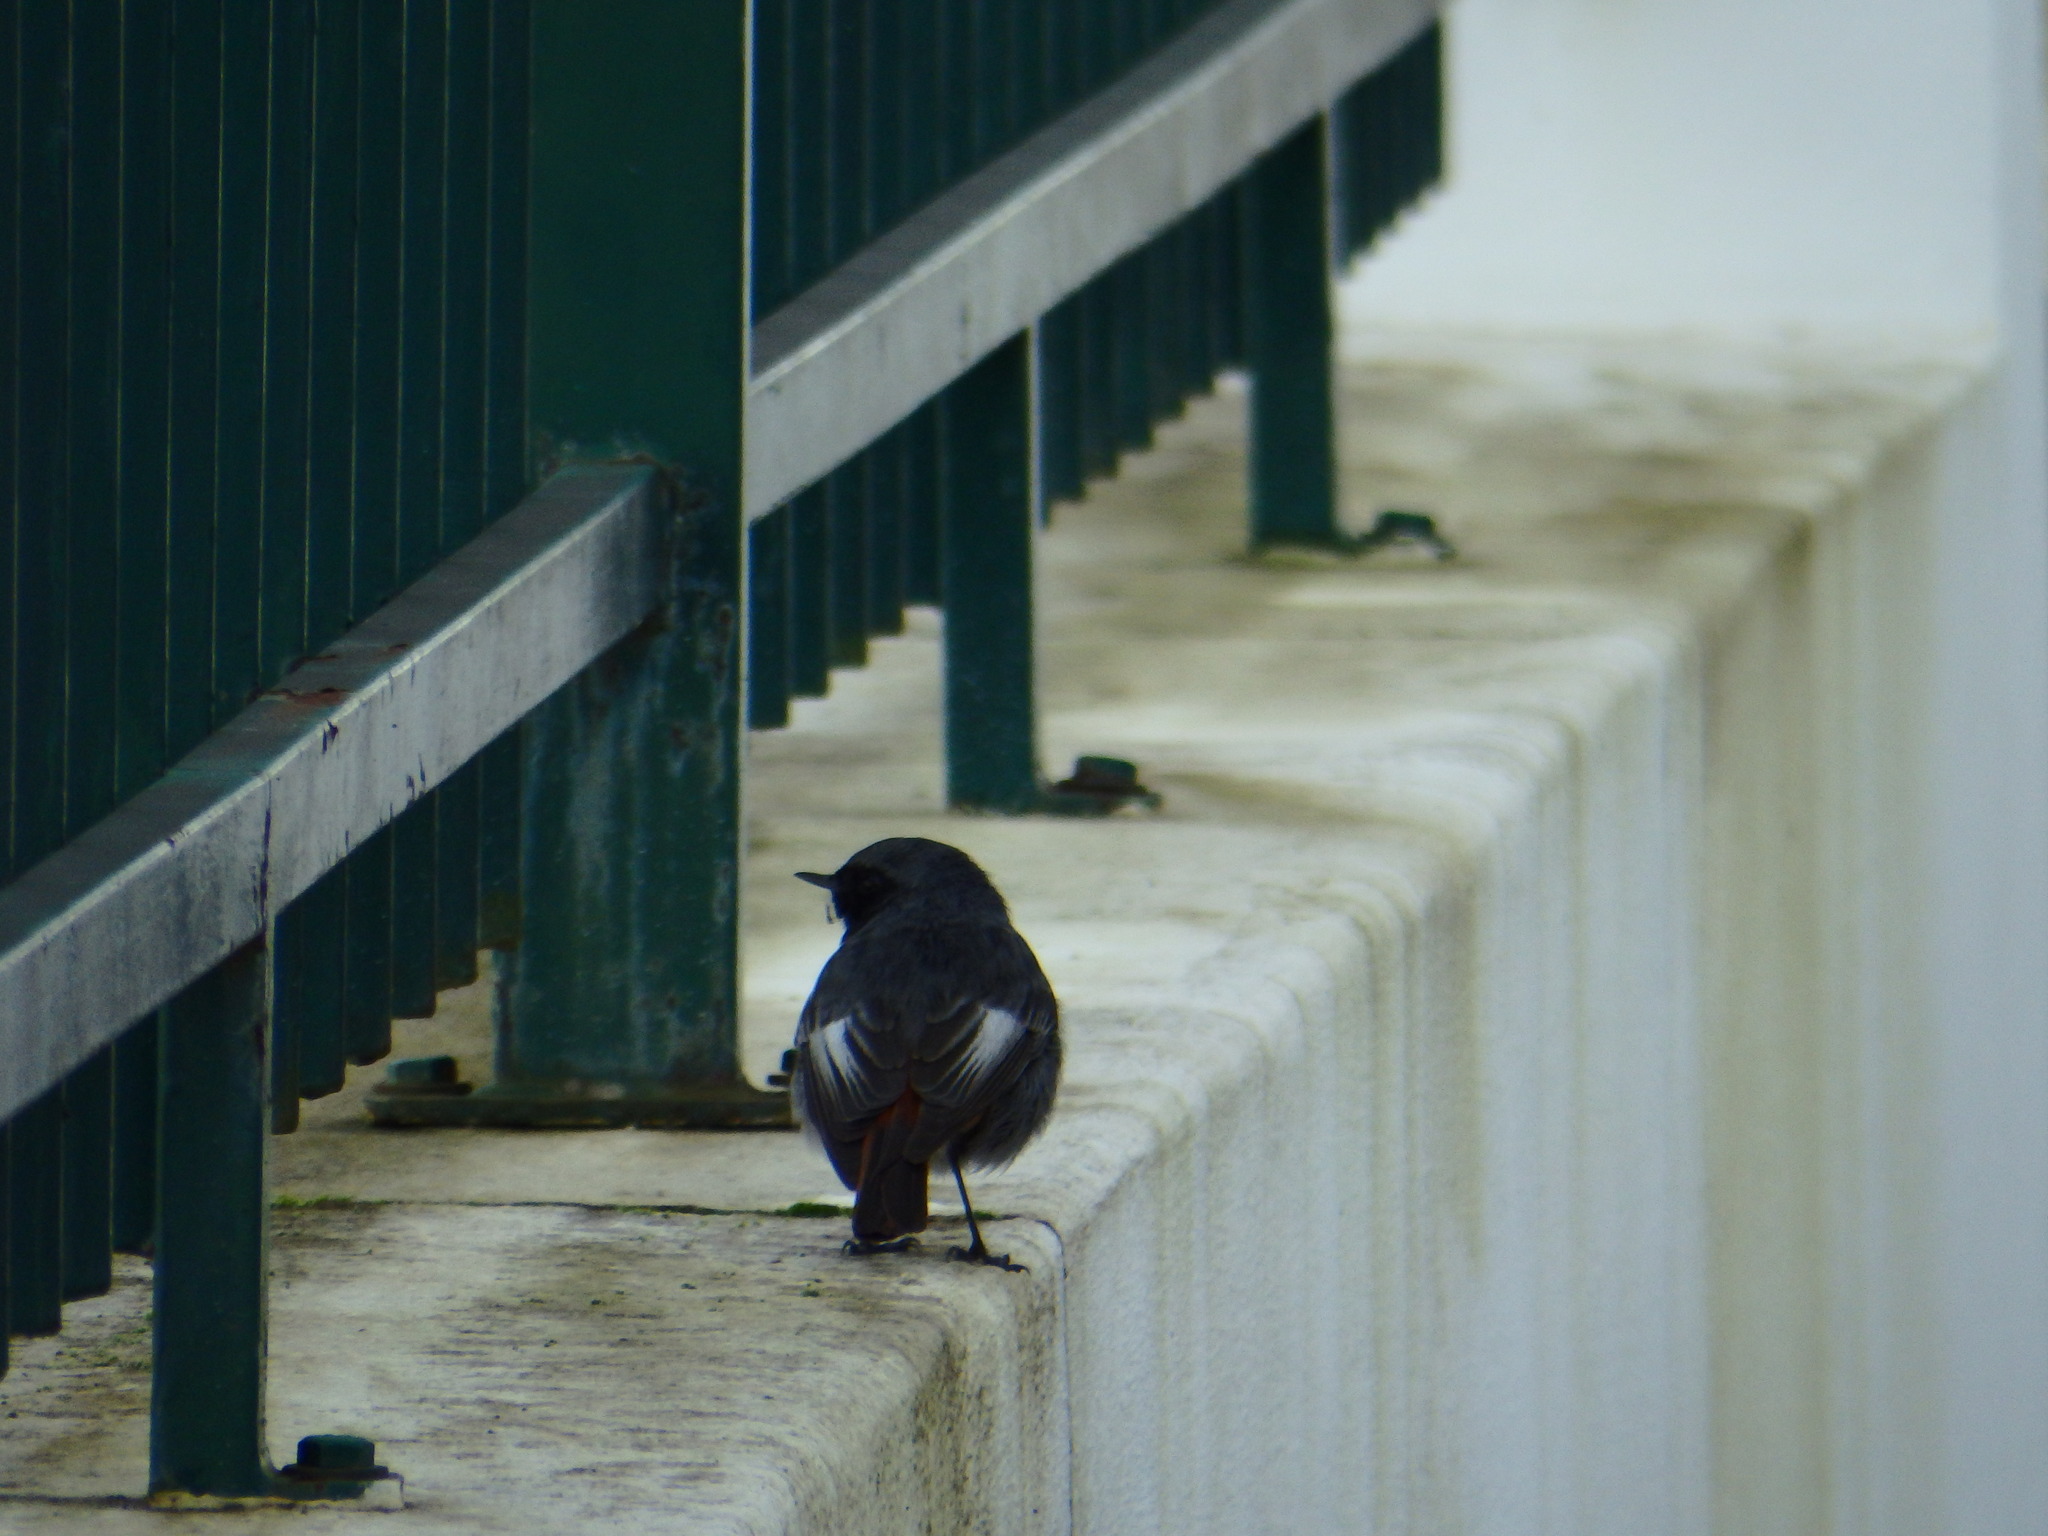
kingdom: Animalia
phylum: Chordata
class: Aves
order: Passeriformes
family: Muscicapidae
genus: Phoenicurus
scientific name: Phoenicurus ochruros
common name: Black redstart
